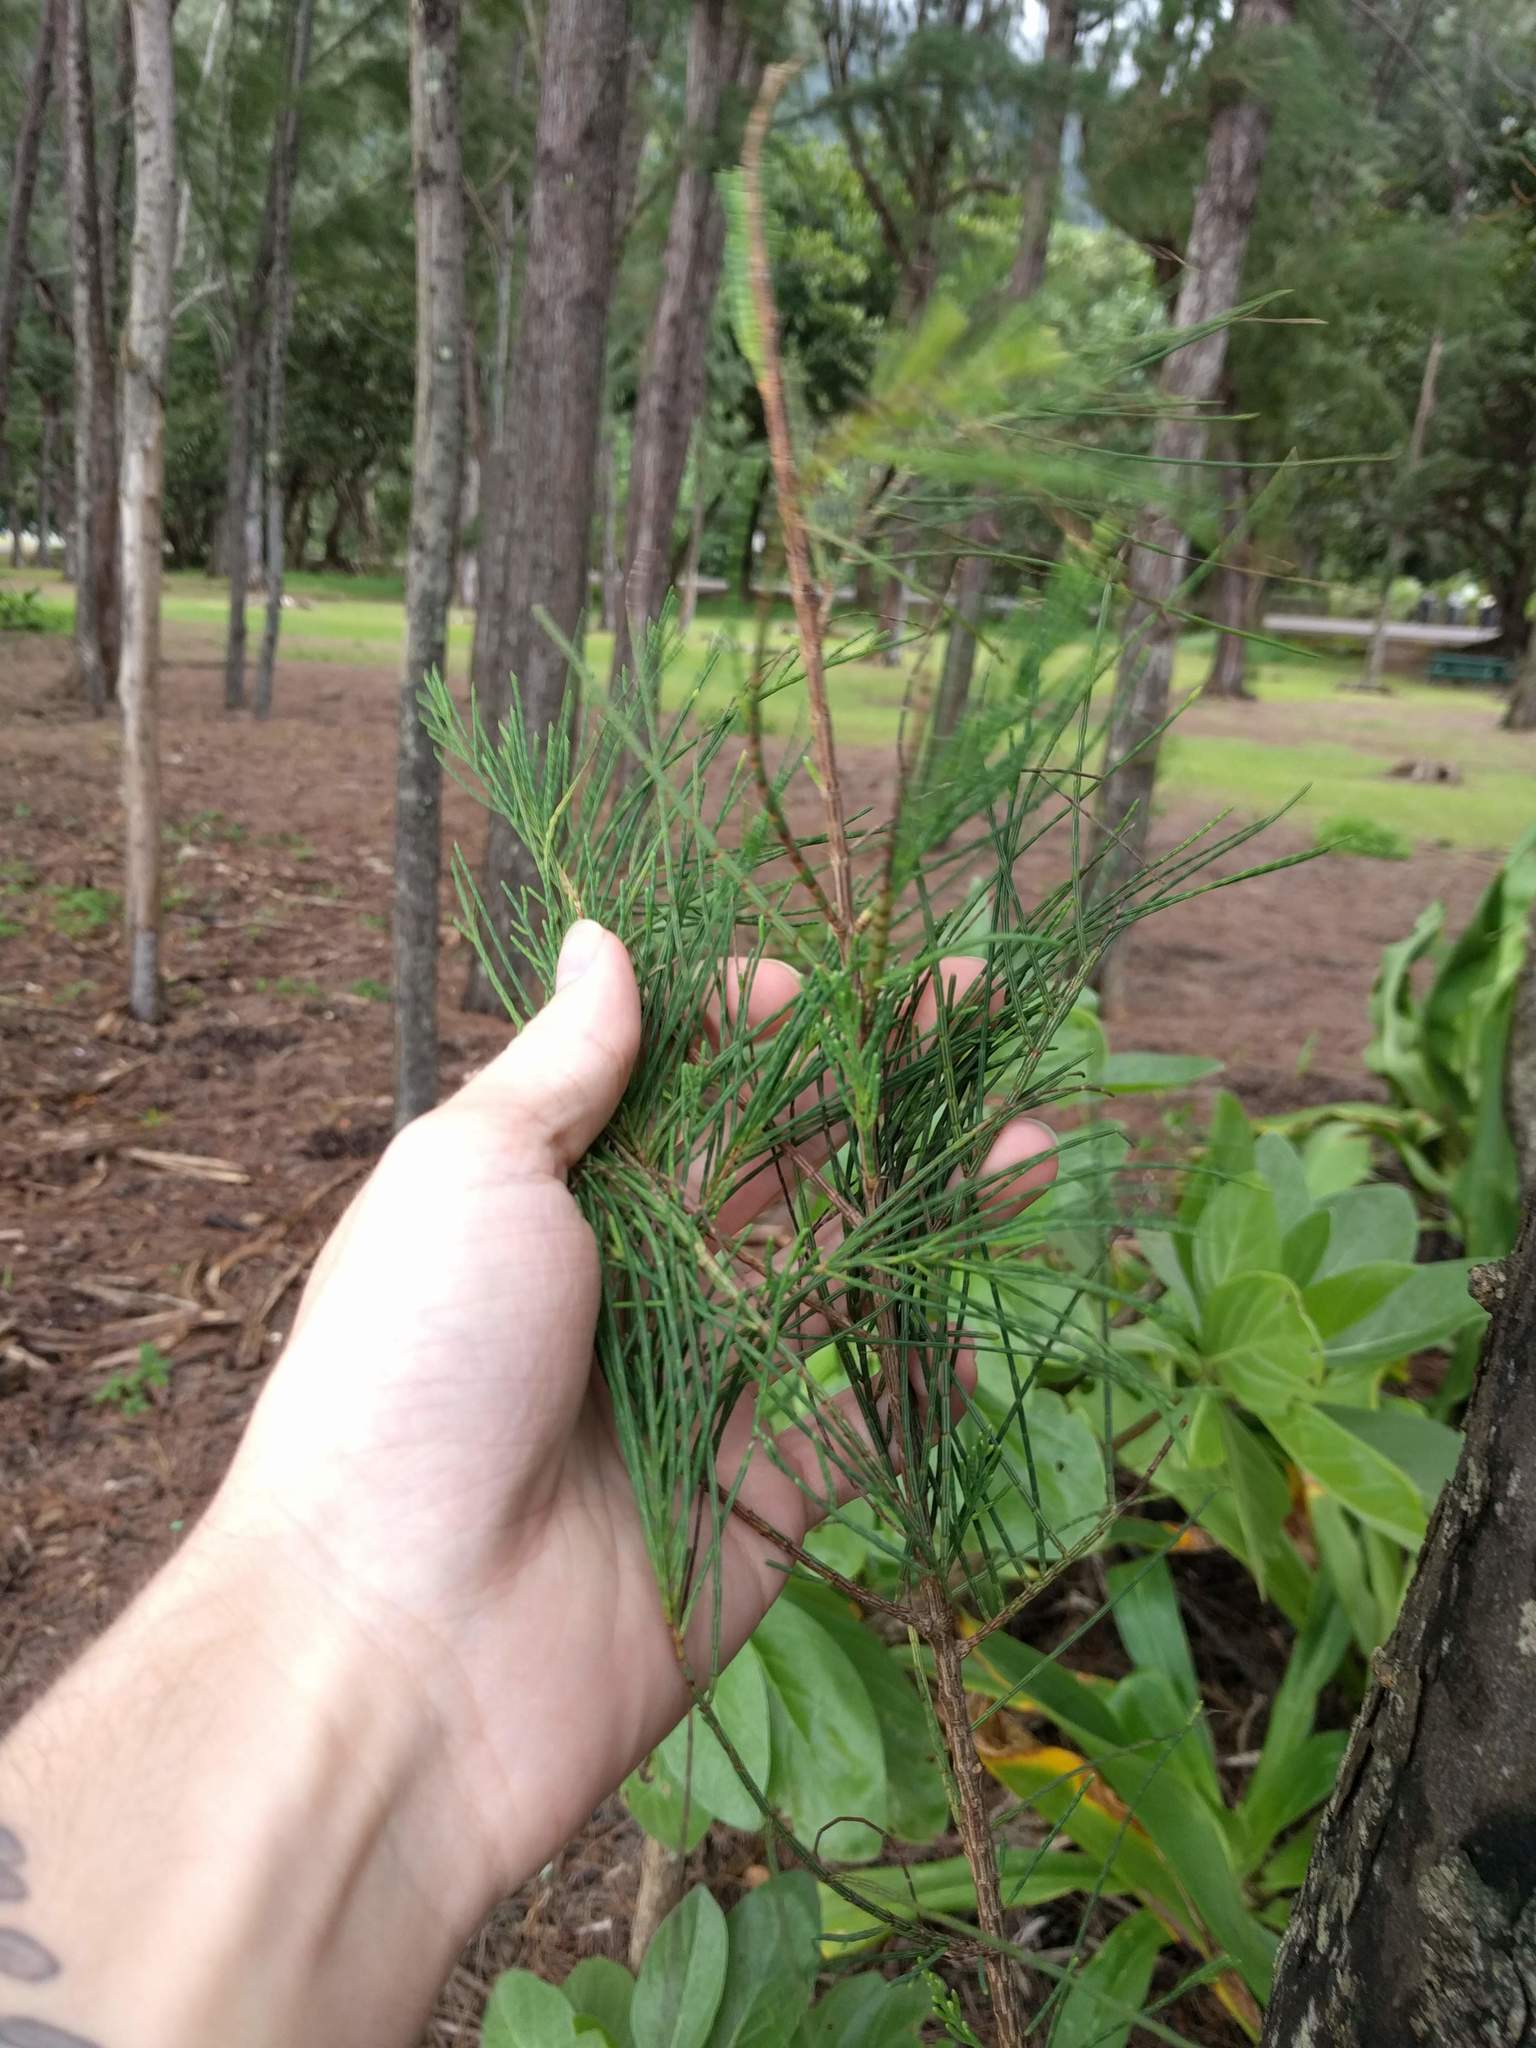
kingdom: Plantae
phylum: Tracheophyta
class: Magnoliopsida
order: Fagales
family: Casuarinaceae
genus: Casuarina
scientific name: Casuarina equisetifolia
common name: Beach sheoak
